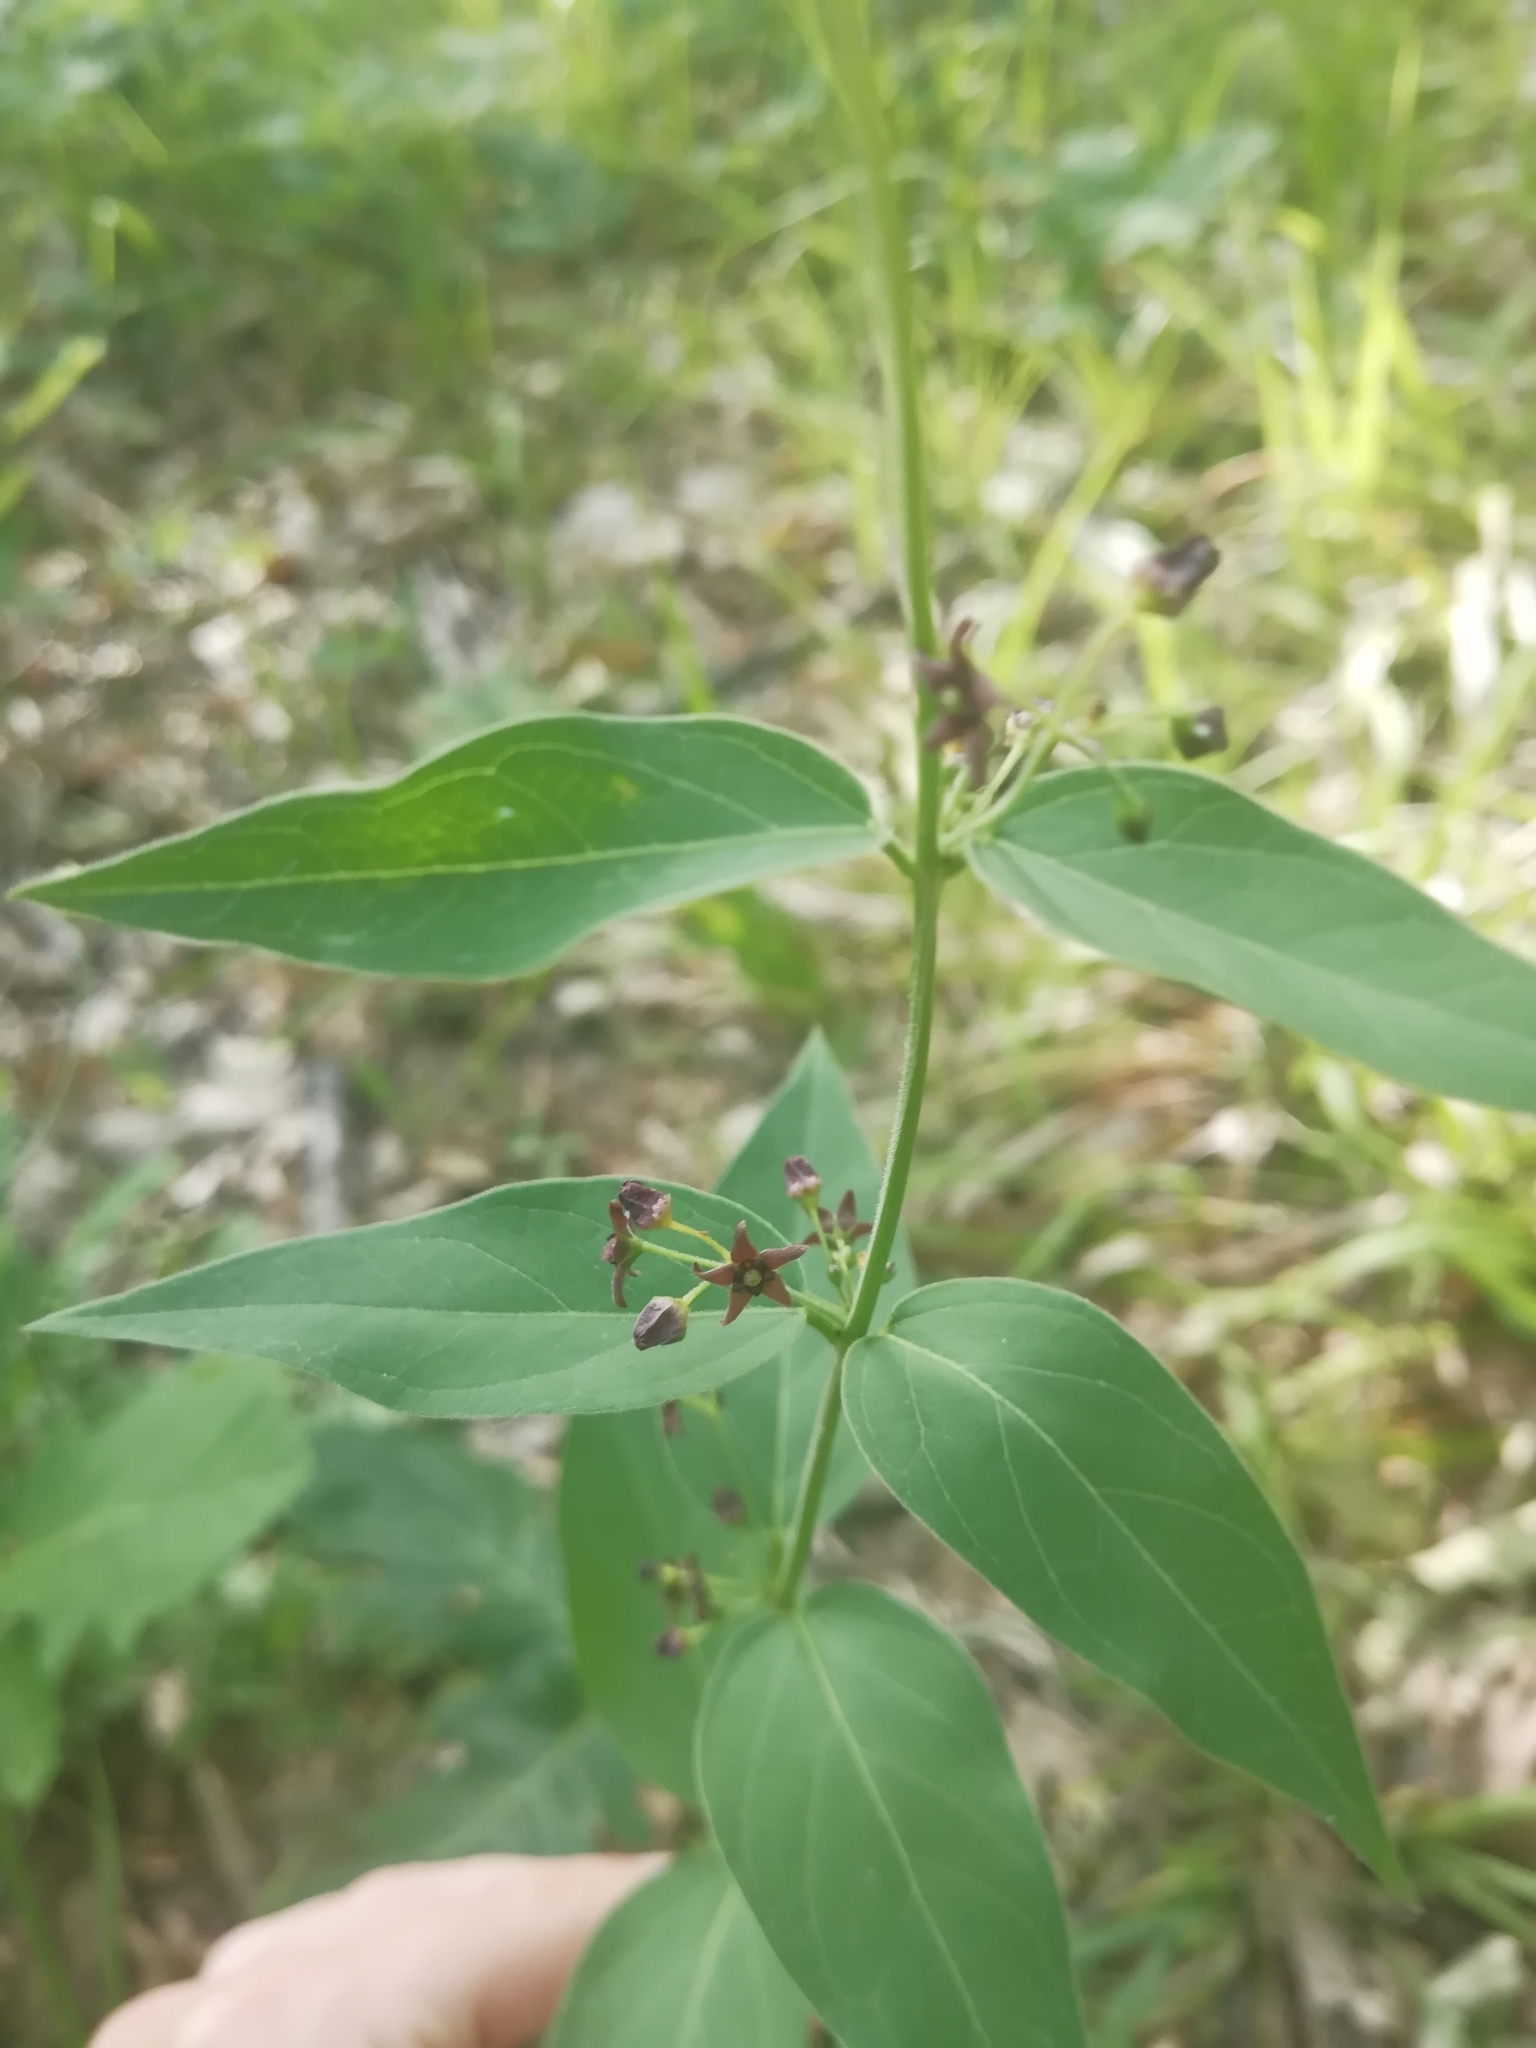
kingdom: Plantae
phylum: Tracheophyta
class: Magnoliopsida
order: Gentianales
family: Apocynaceae
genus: Vincetoxicum
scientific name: Vincetoxicum scandens
